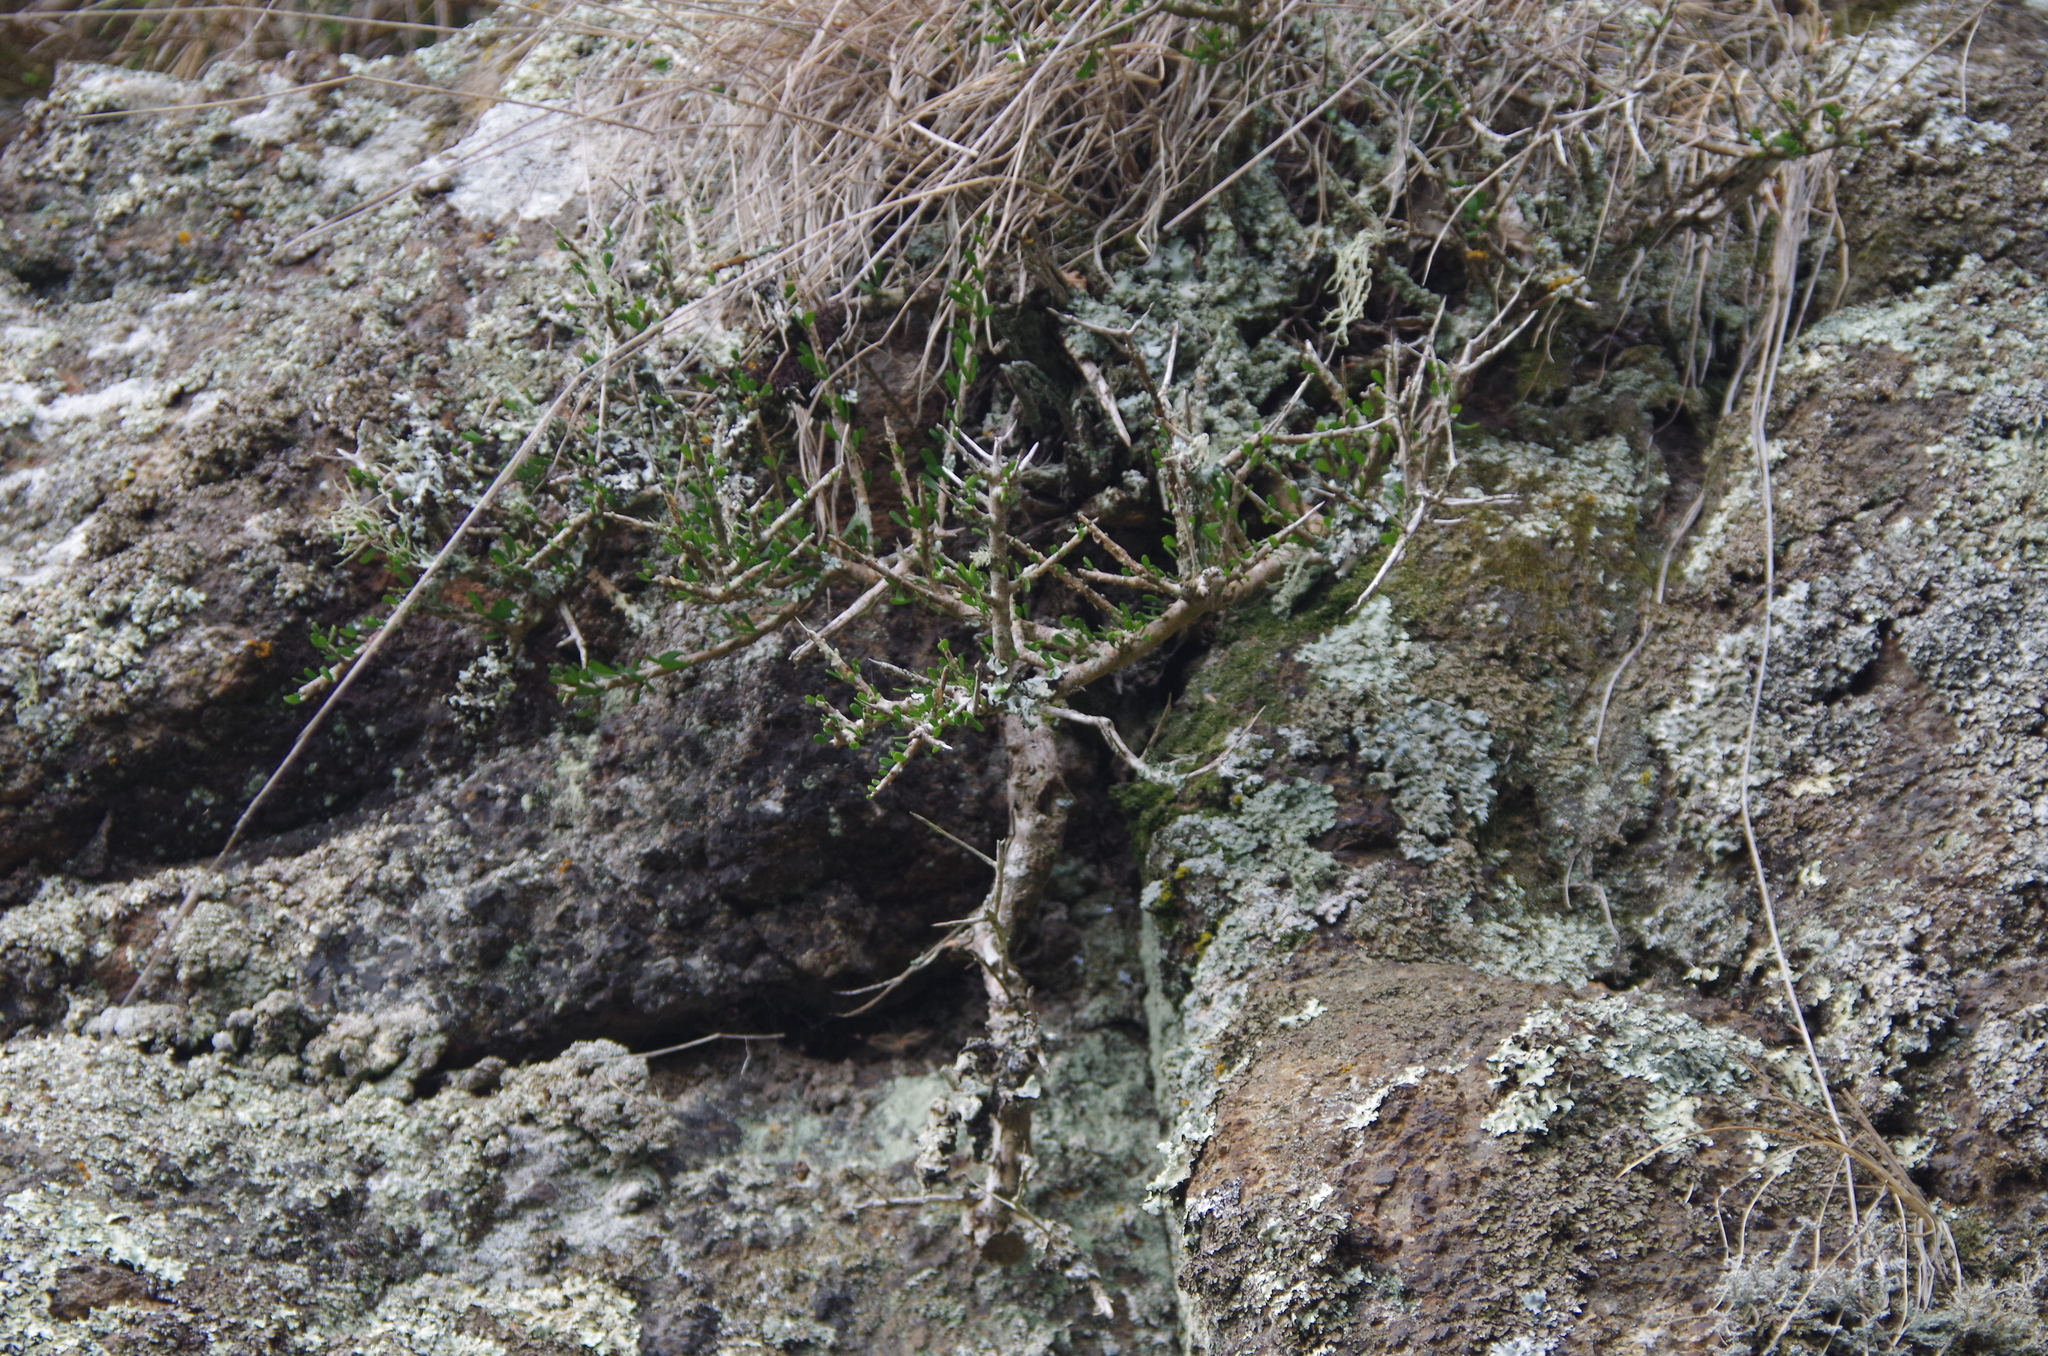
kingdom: Plantae
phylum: Tracheophyta
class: Magnoliopsida
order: Malpighiales
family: Violaceae
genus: Melicytus
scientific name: Melicytus alpinus
